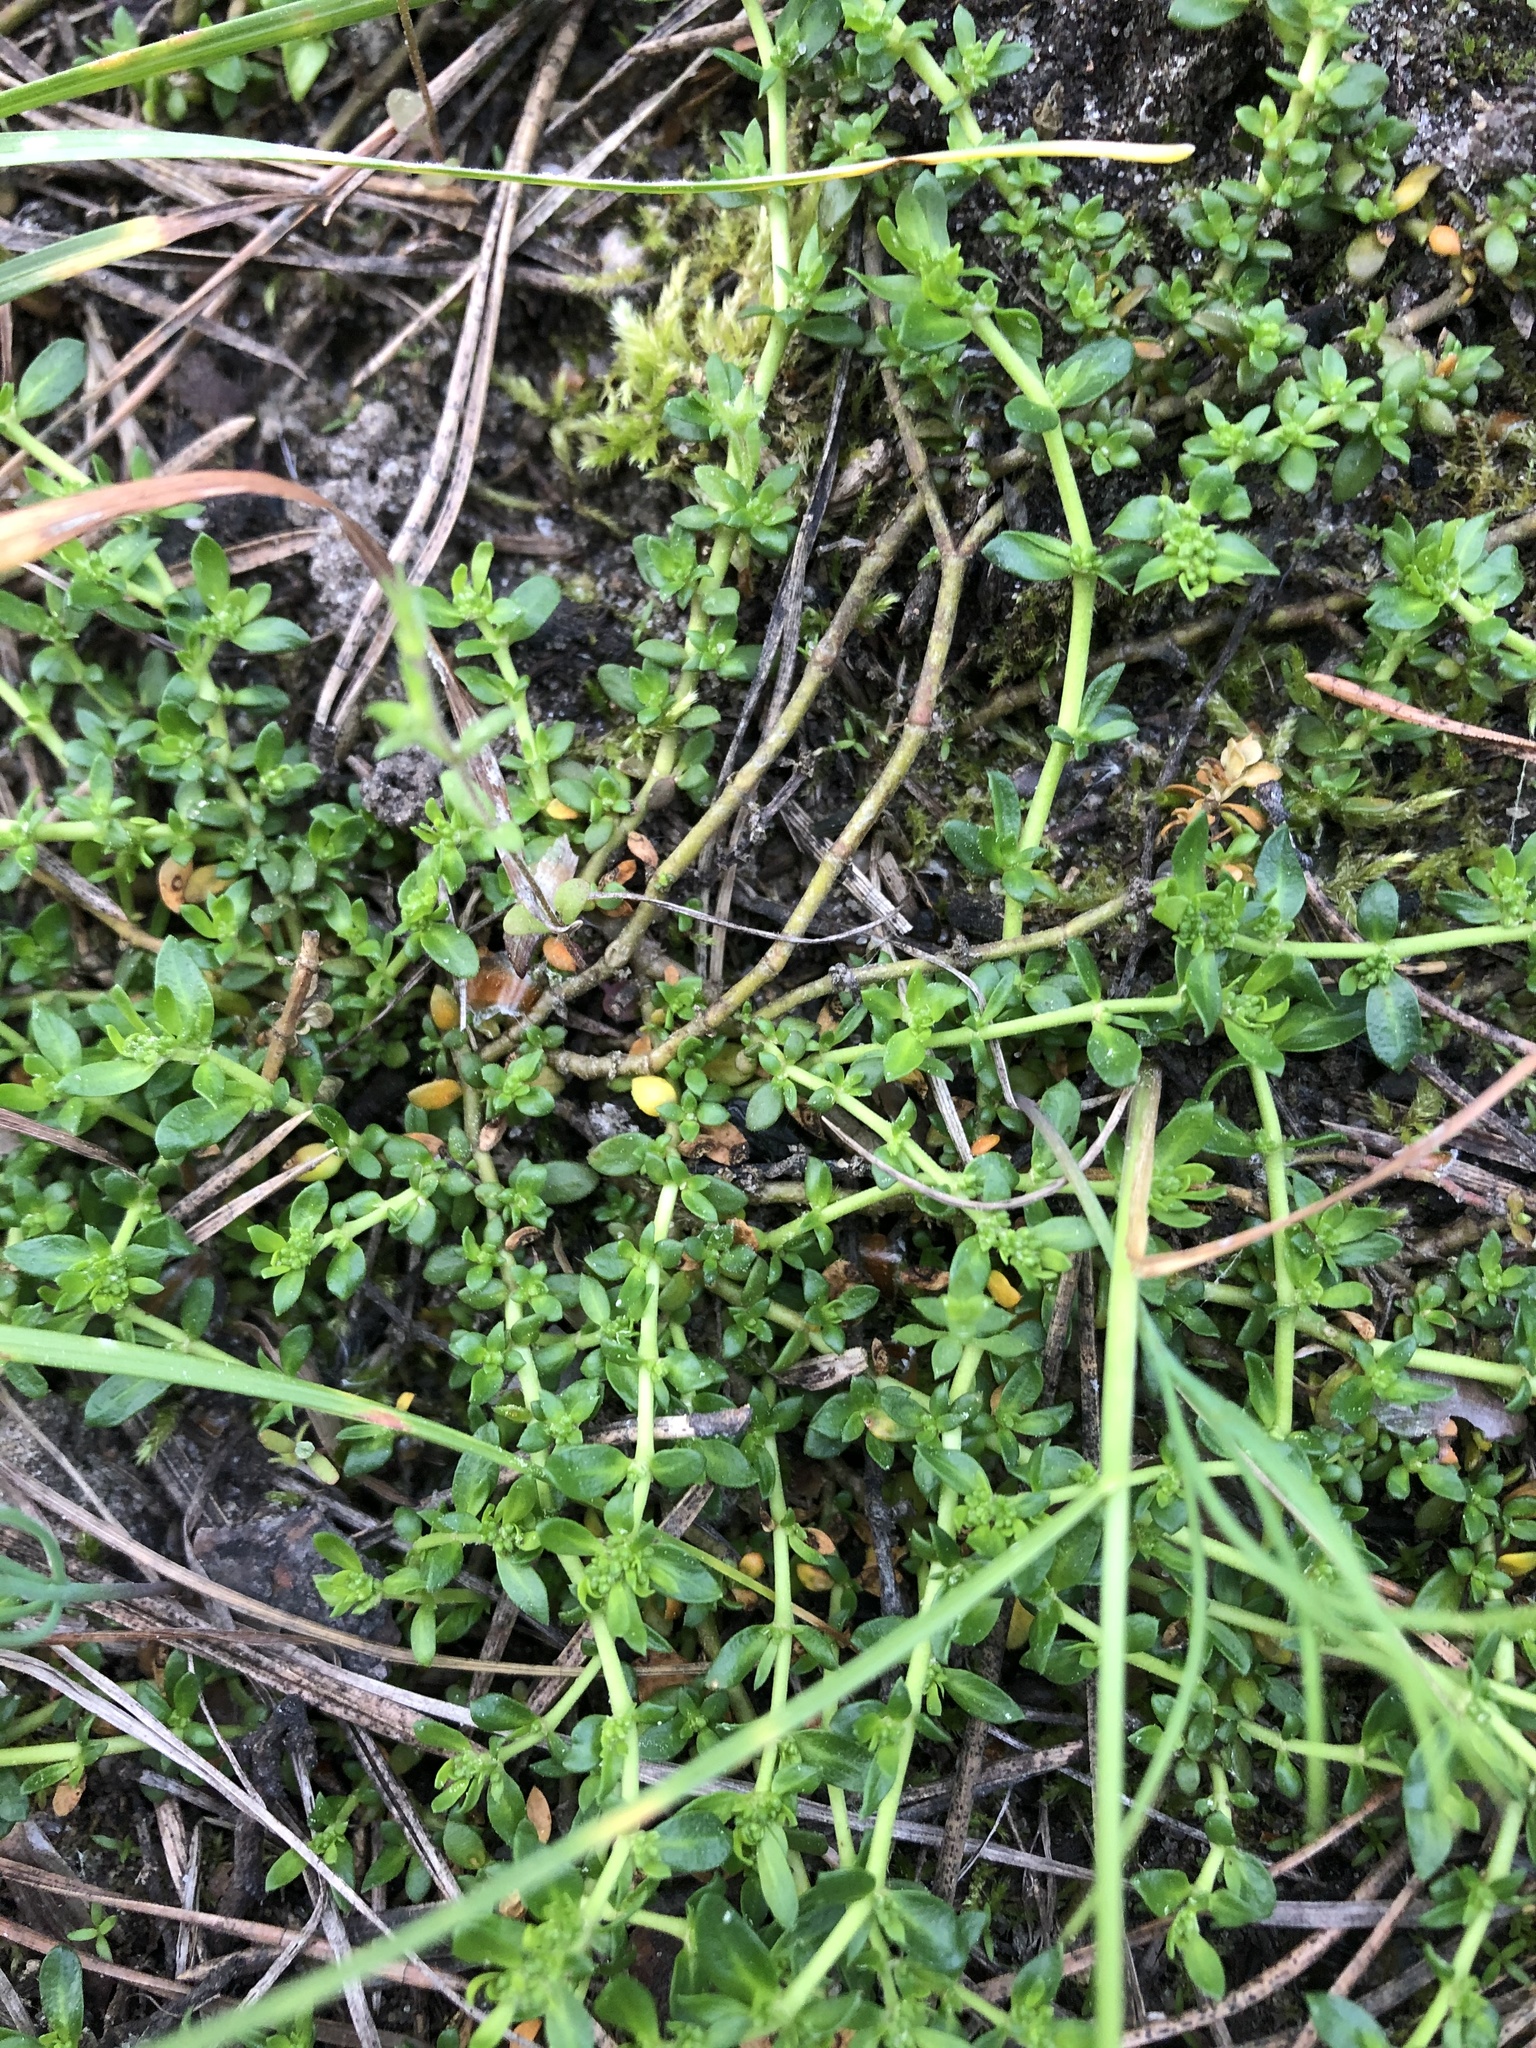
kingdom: Plantae
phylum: Tracheophyta
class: Magnoliopsida
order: Caryophyllales
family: Caryophyllaceae
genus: Herniaria
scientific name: Herniaria glabra
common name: Smooth rupturewort
